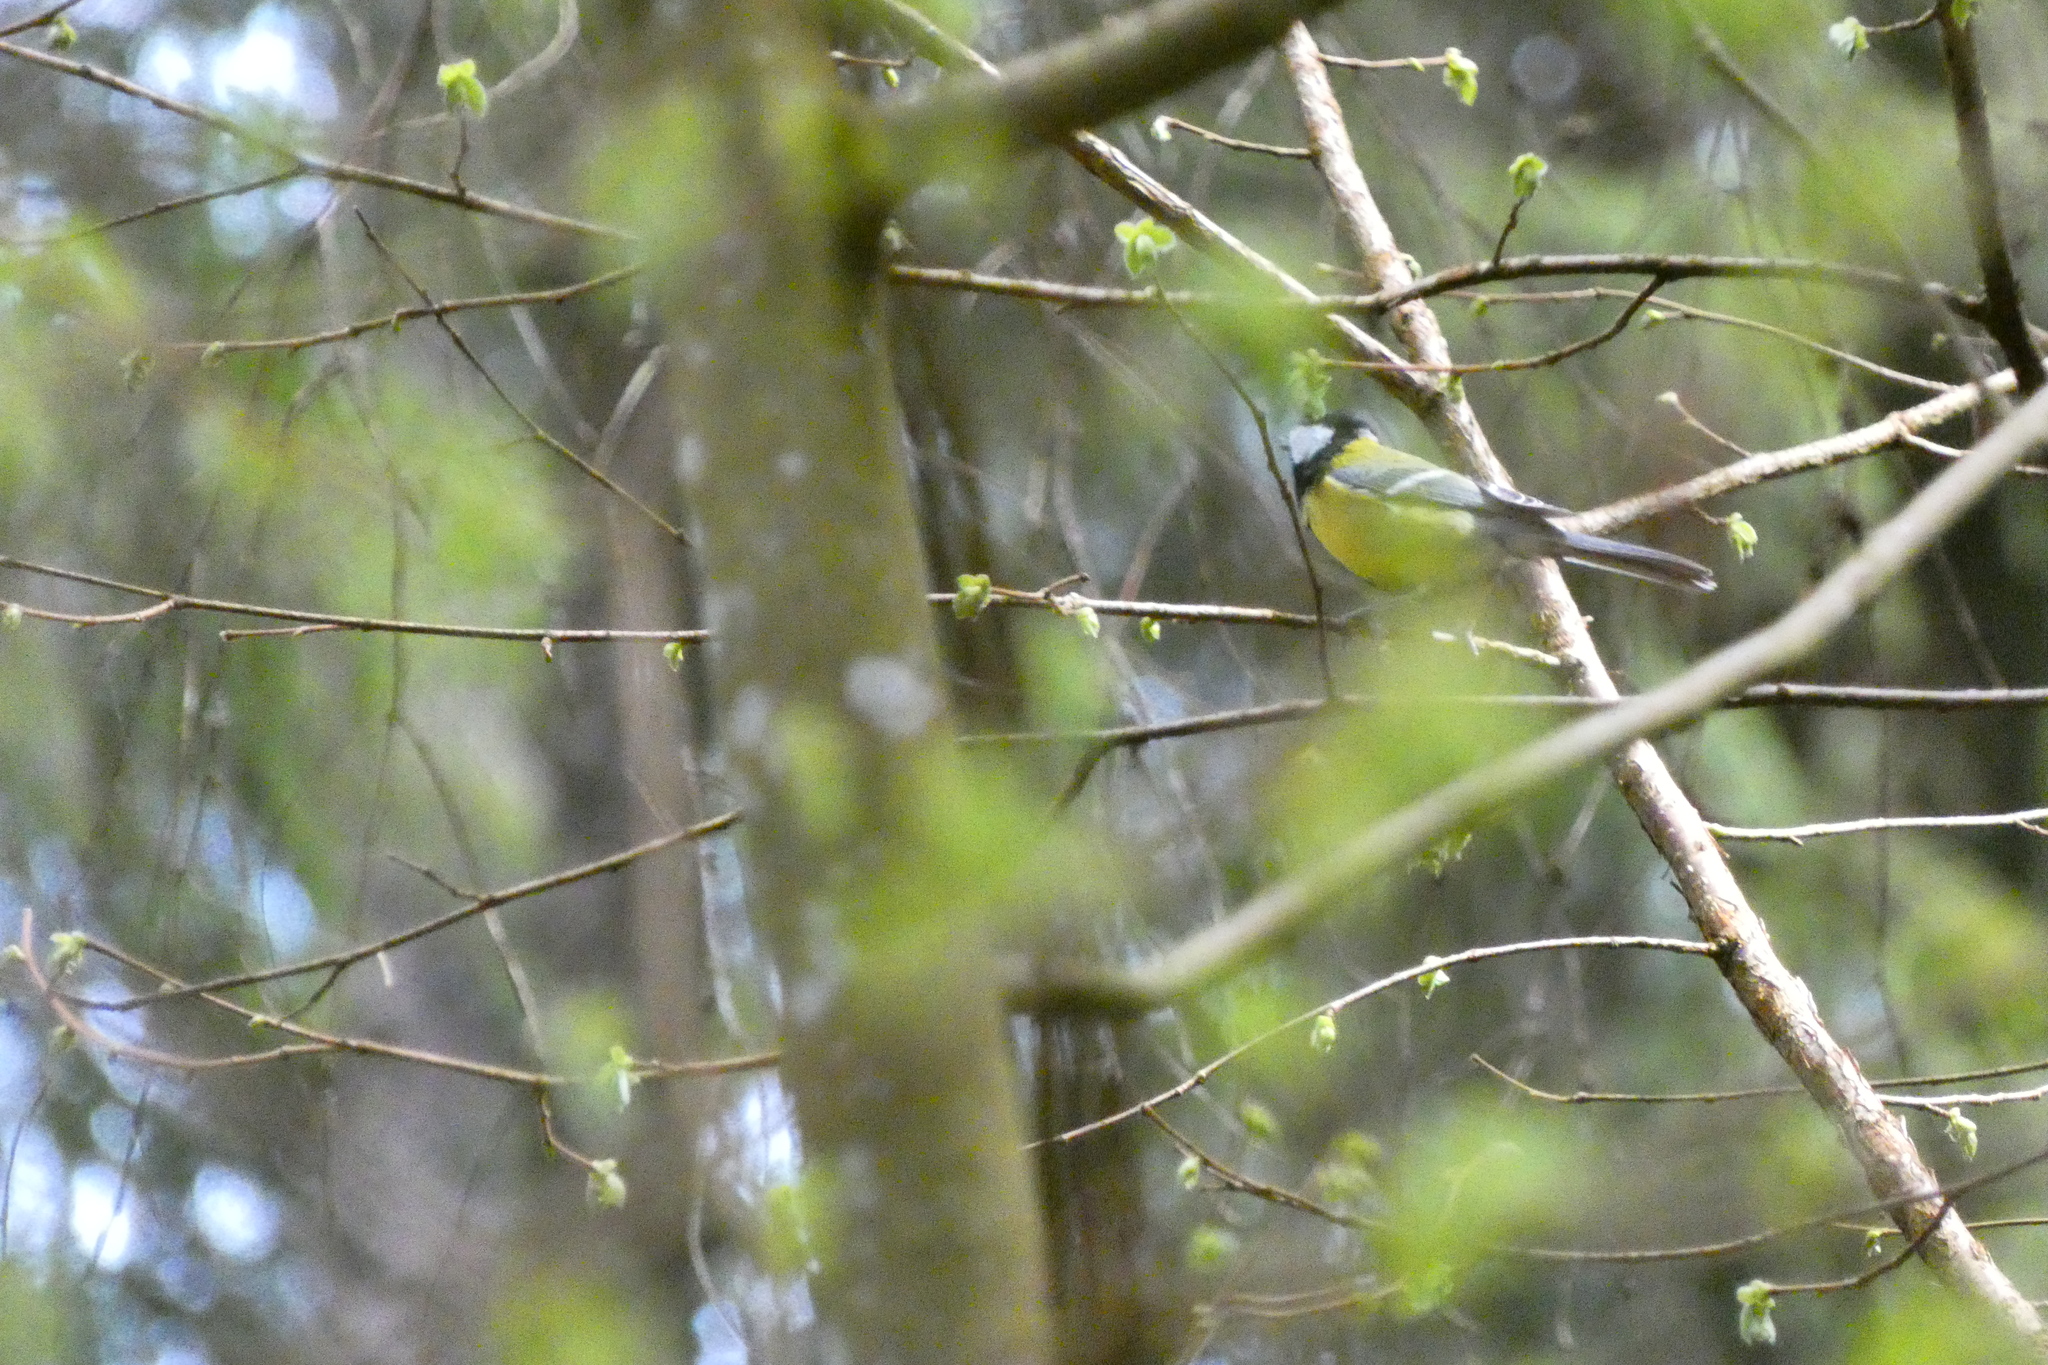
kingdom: Animalia
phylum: Chordata
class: Aves
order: Passeriformes
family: Paridae
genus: Parus
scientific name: Parus major
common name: Great tit
